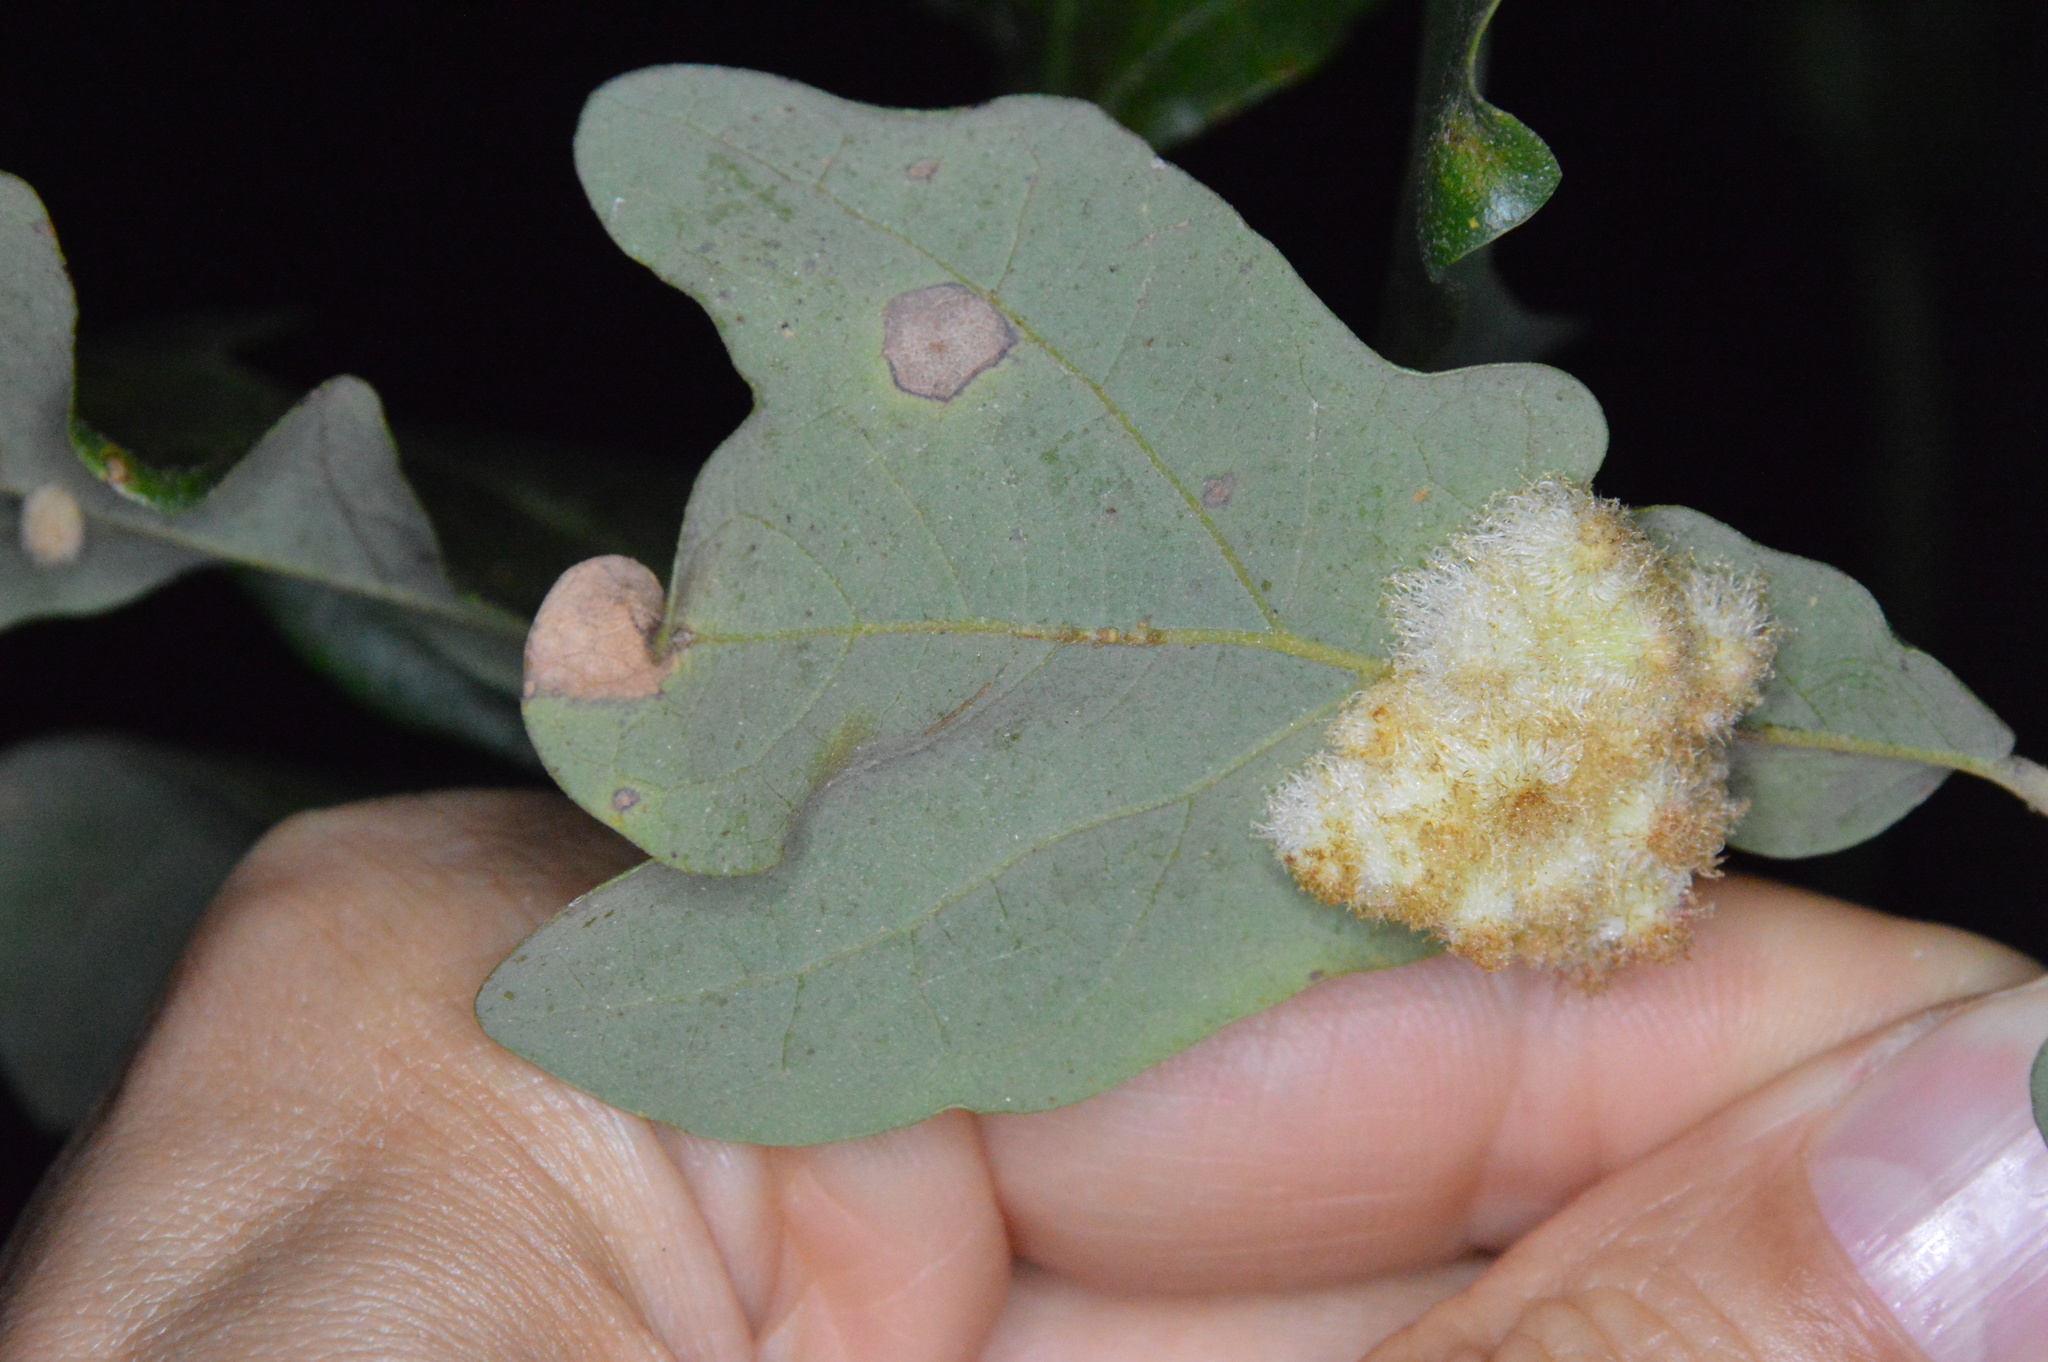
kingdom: Animalia
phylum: Arthropoda
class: Insecta
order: Hymenoptera
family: Cynipidae
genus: Andricus
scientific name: Andricus
